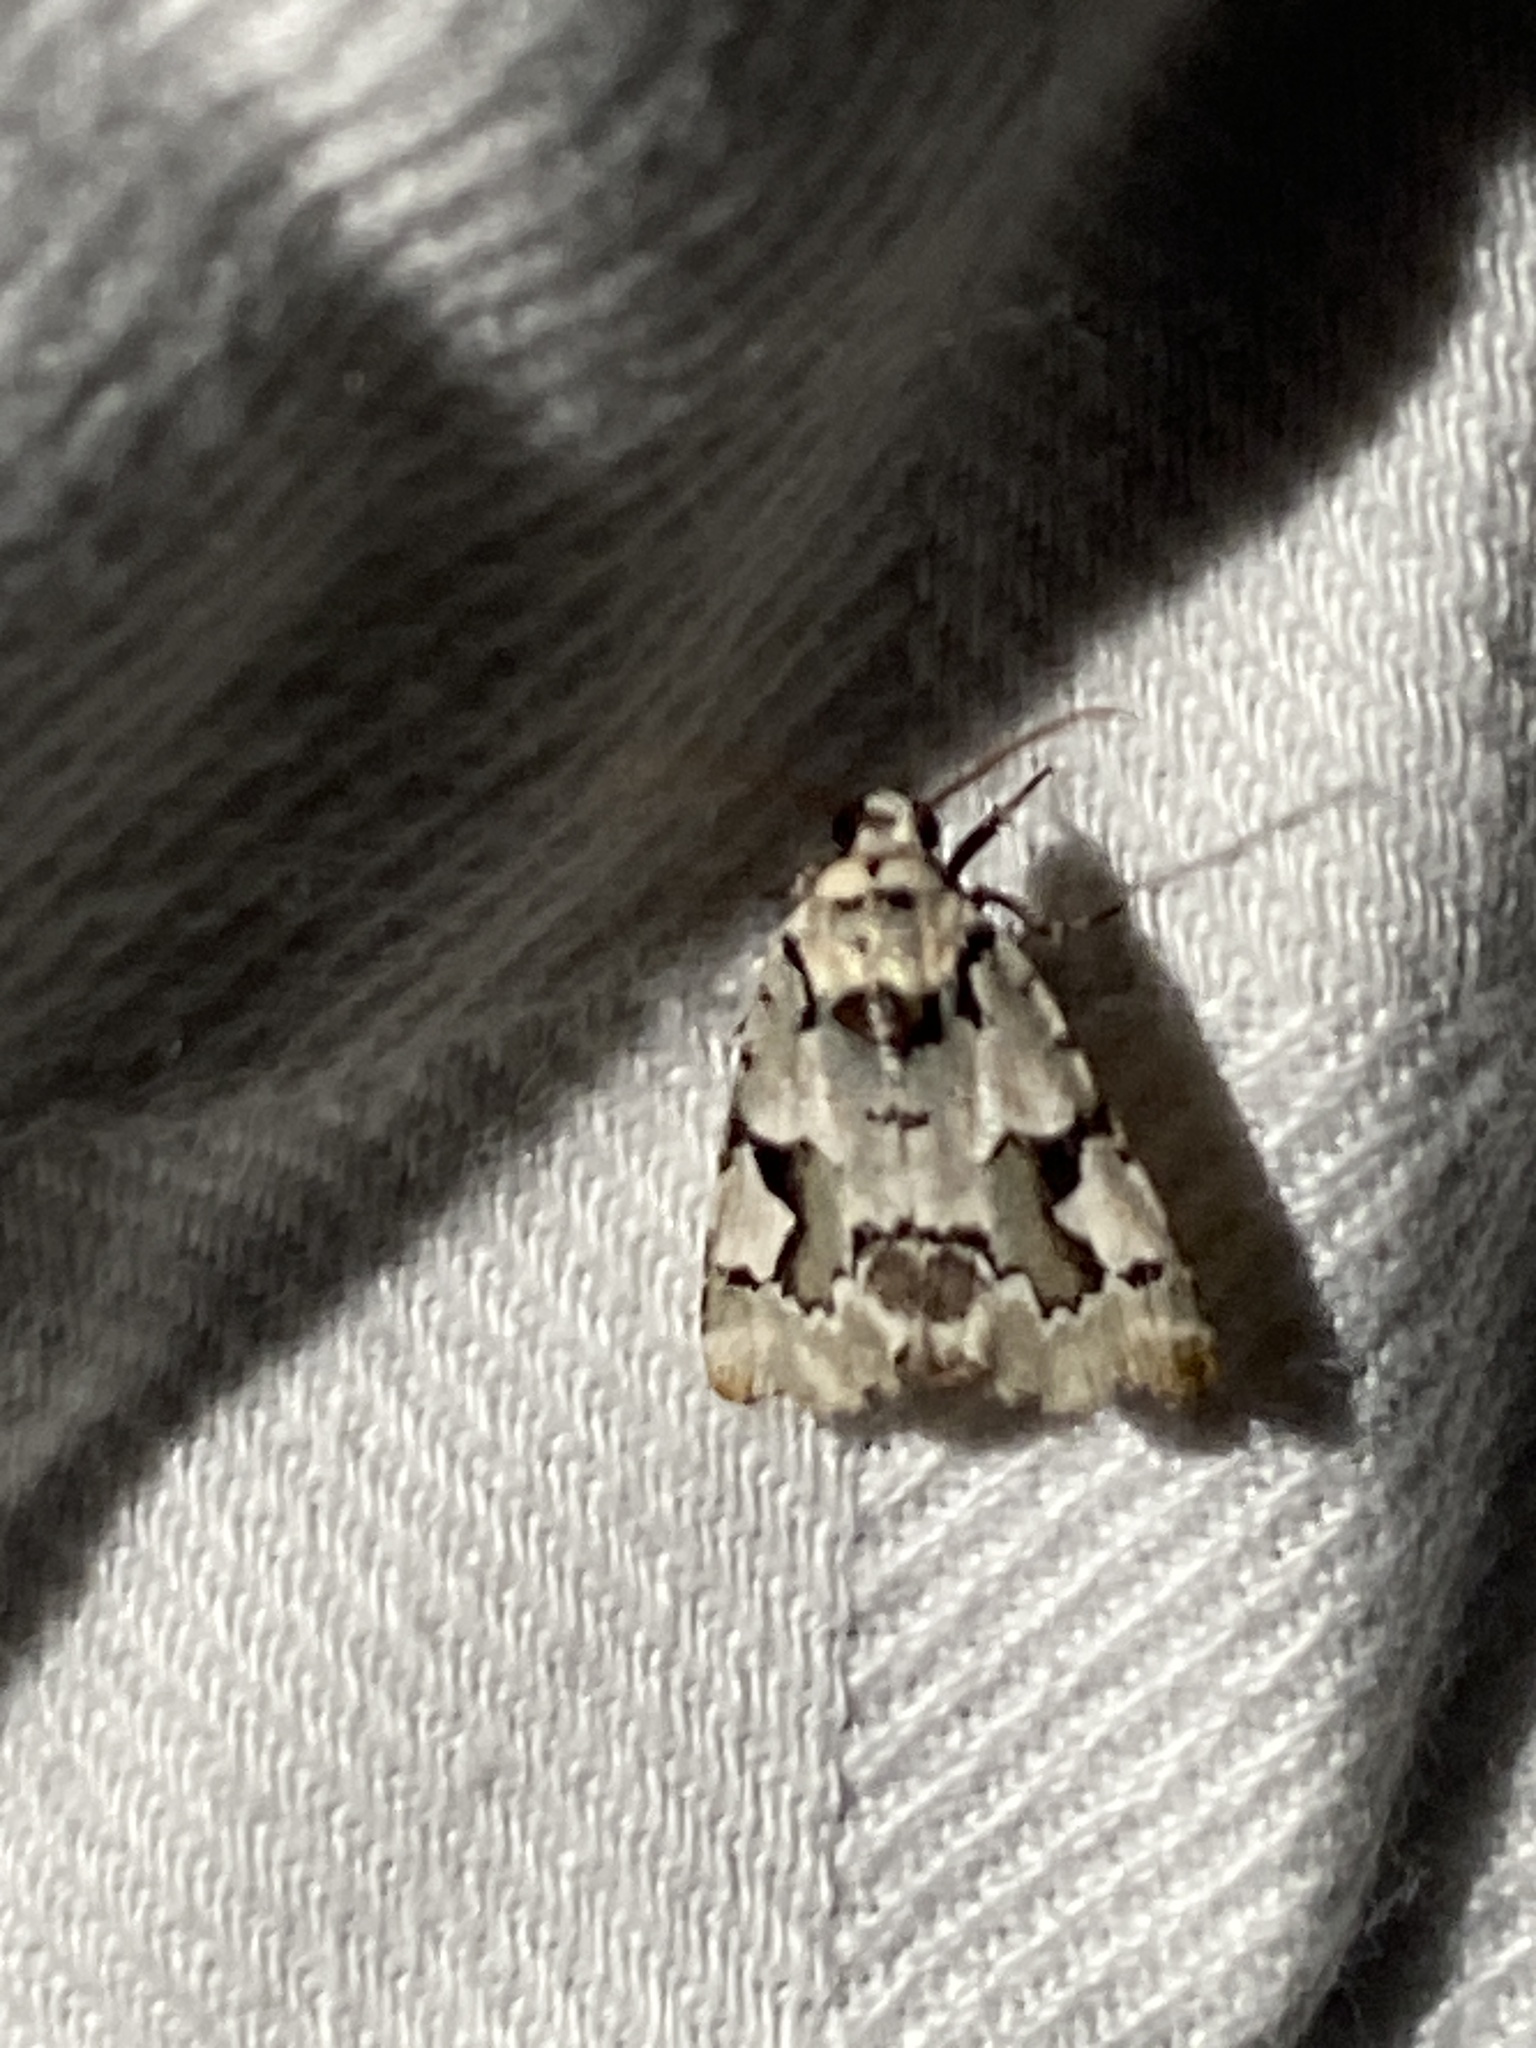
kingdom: Animalia
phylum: Arthropoda
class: Insecta
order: Lepidoptera
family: Noctuidae
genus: Emarginea
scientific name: Emarginea percara
